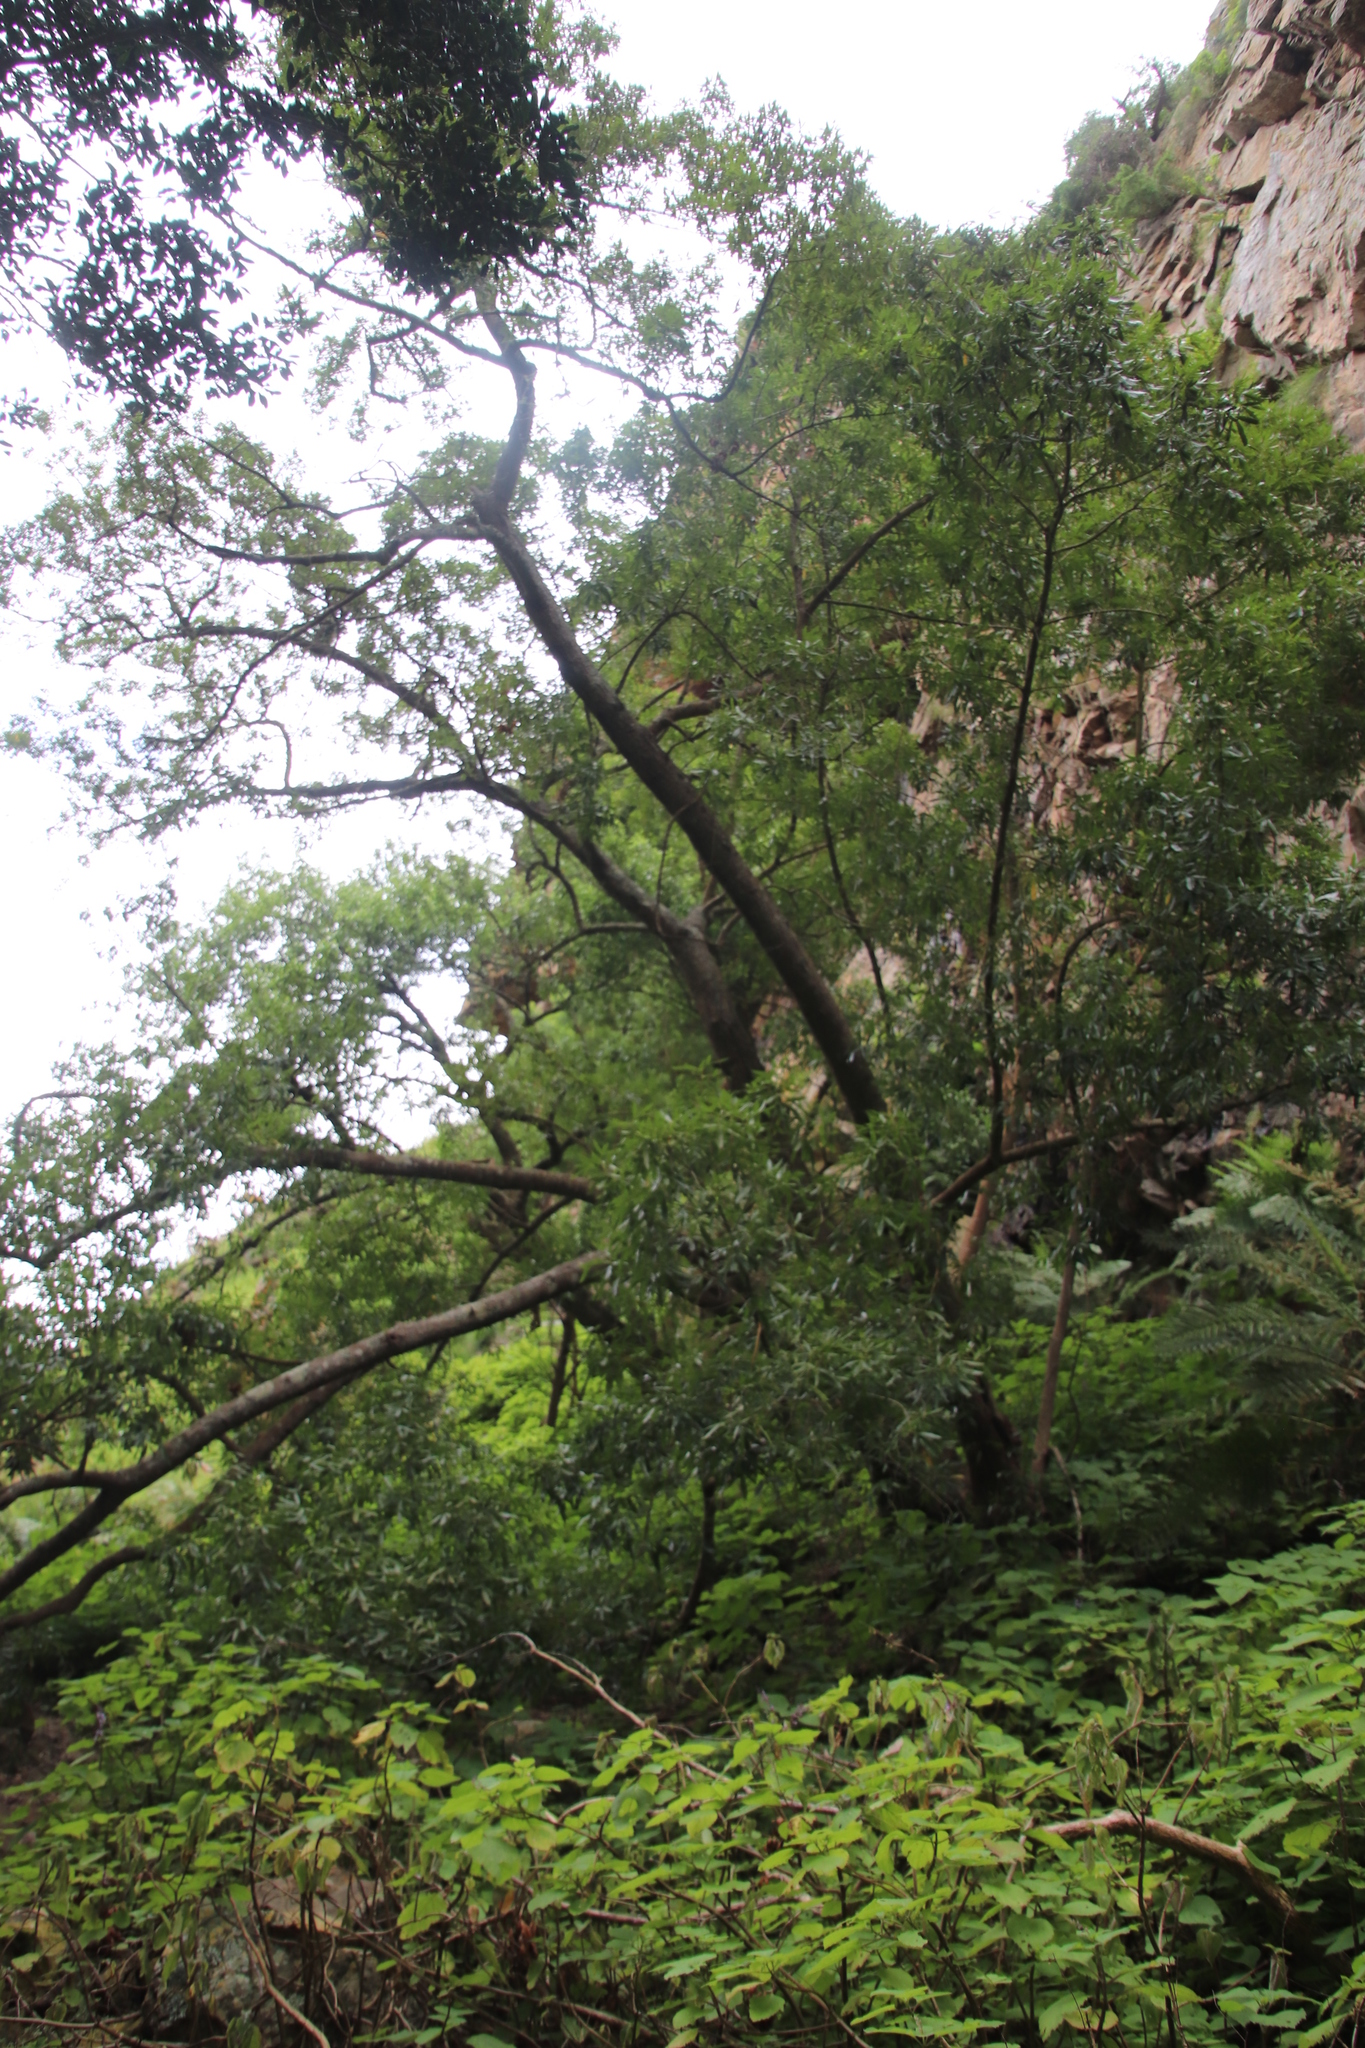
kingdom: Plantae
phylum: Tracheophyta
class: Magnoliopsida
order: Oxalidales
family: Cunoniaceae
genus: Platylophus
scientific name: Platylophus trifoliatus
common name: White alder
